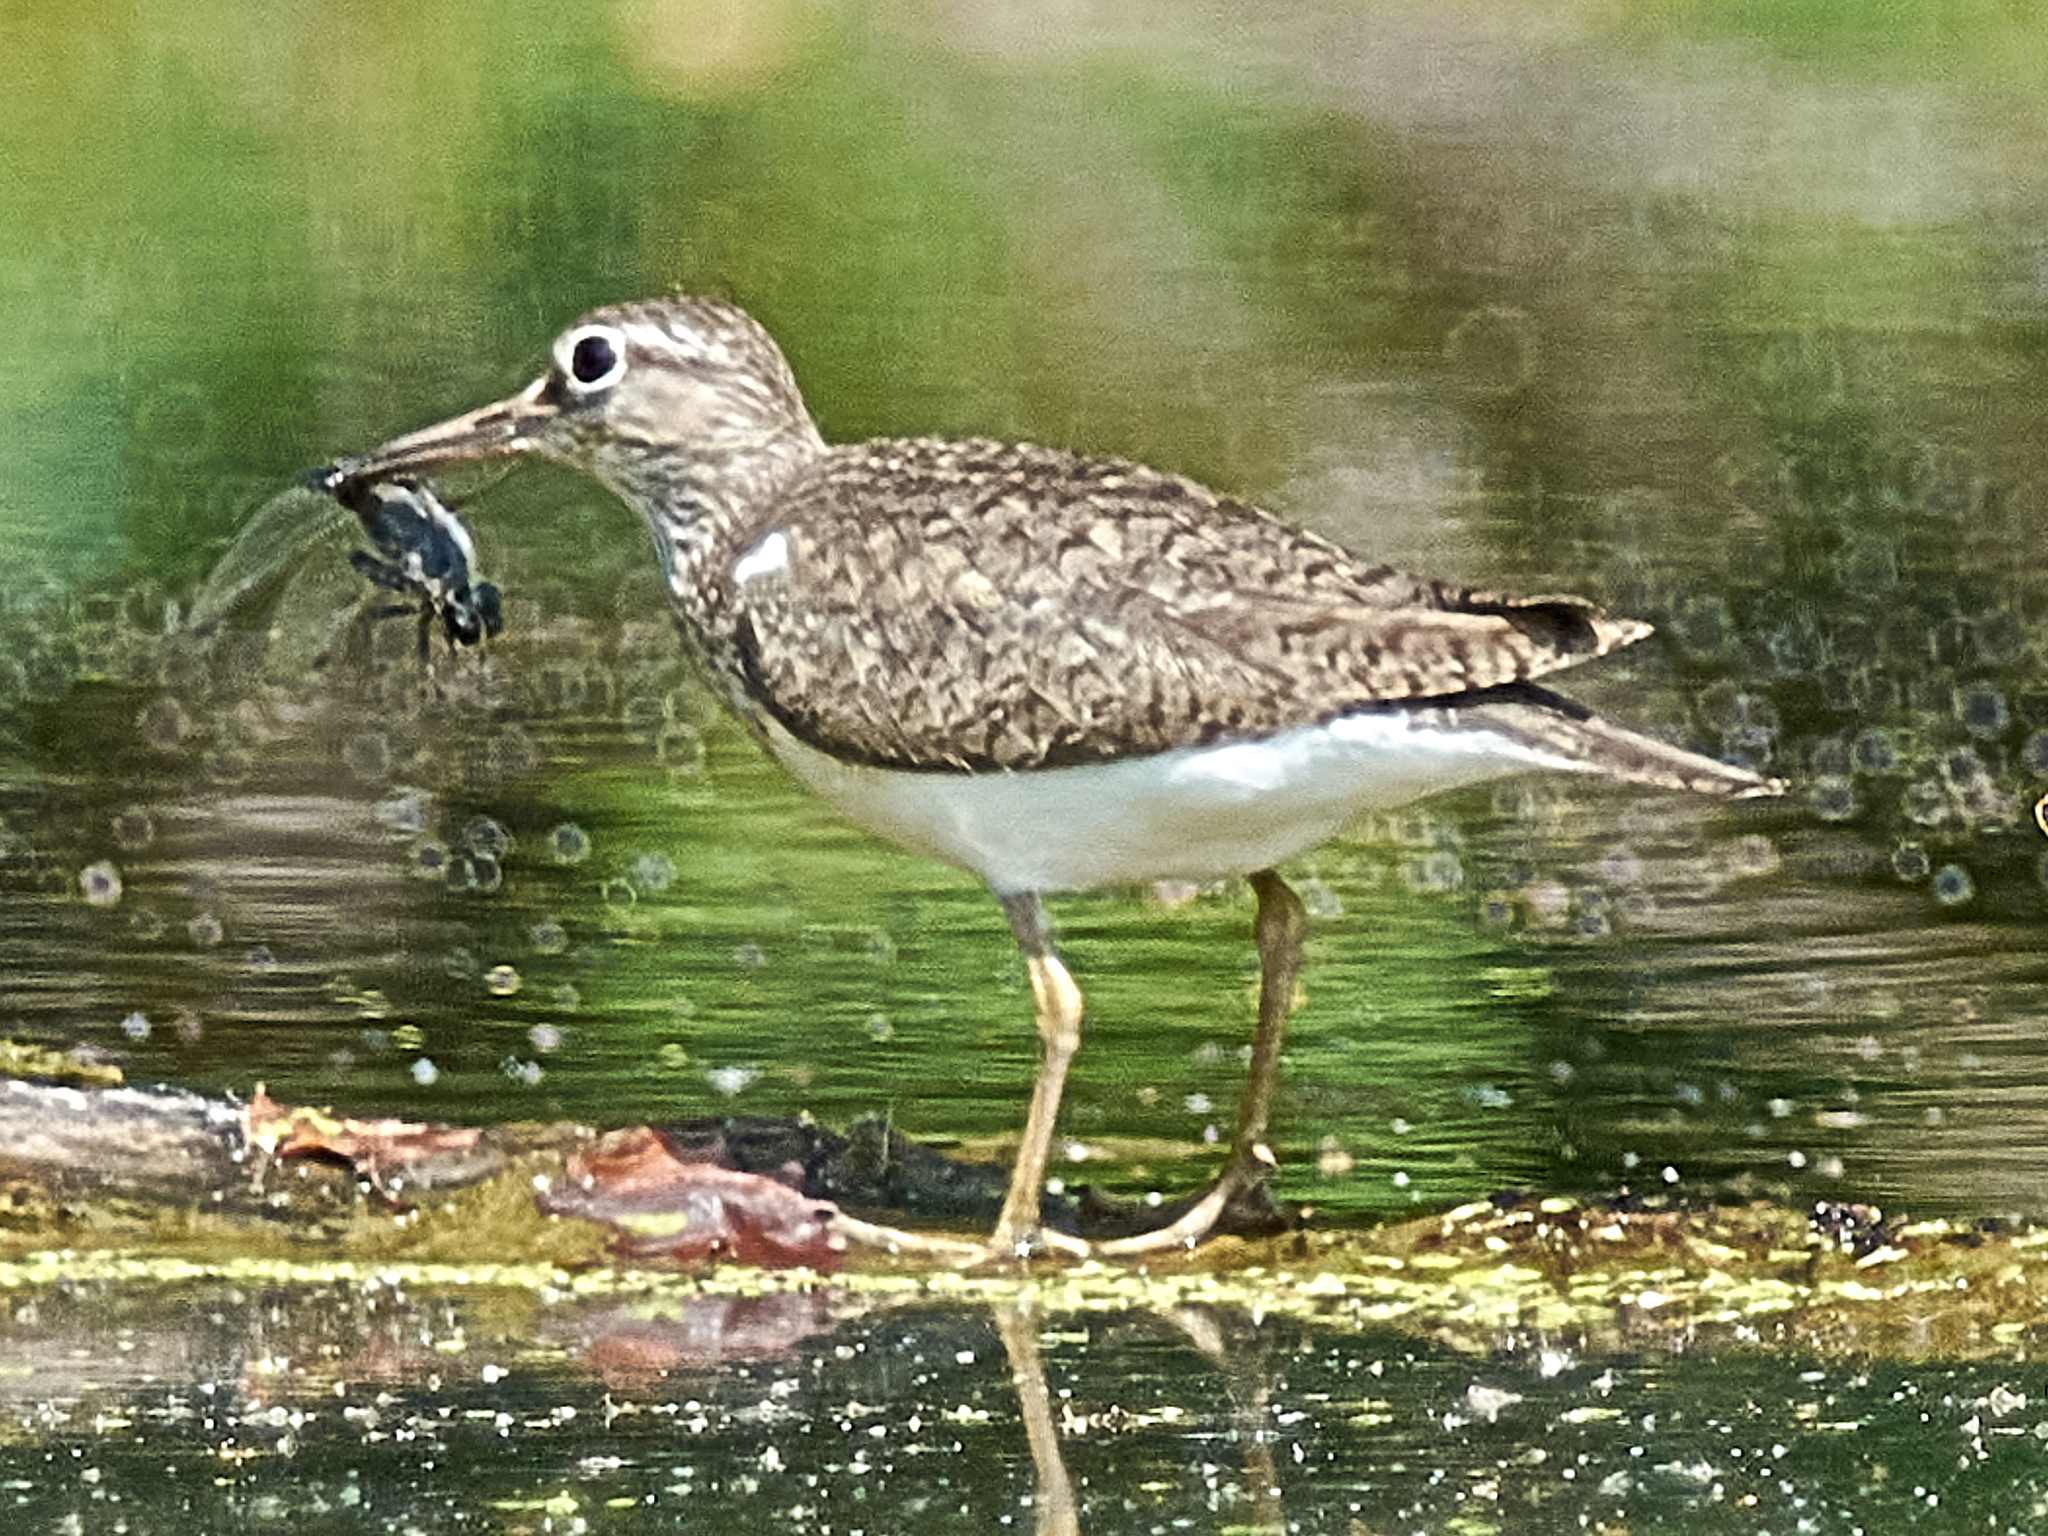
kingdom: Animalia
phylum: Chordata
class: Aves
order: Charadriiformes
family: Scolopacidae
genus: Actitis
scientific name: Actitis hypoleucos
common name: Common sandpiper
